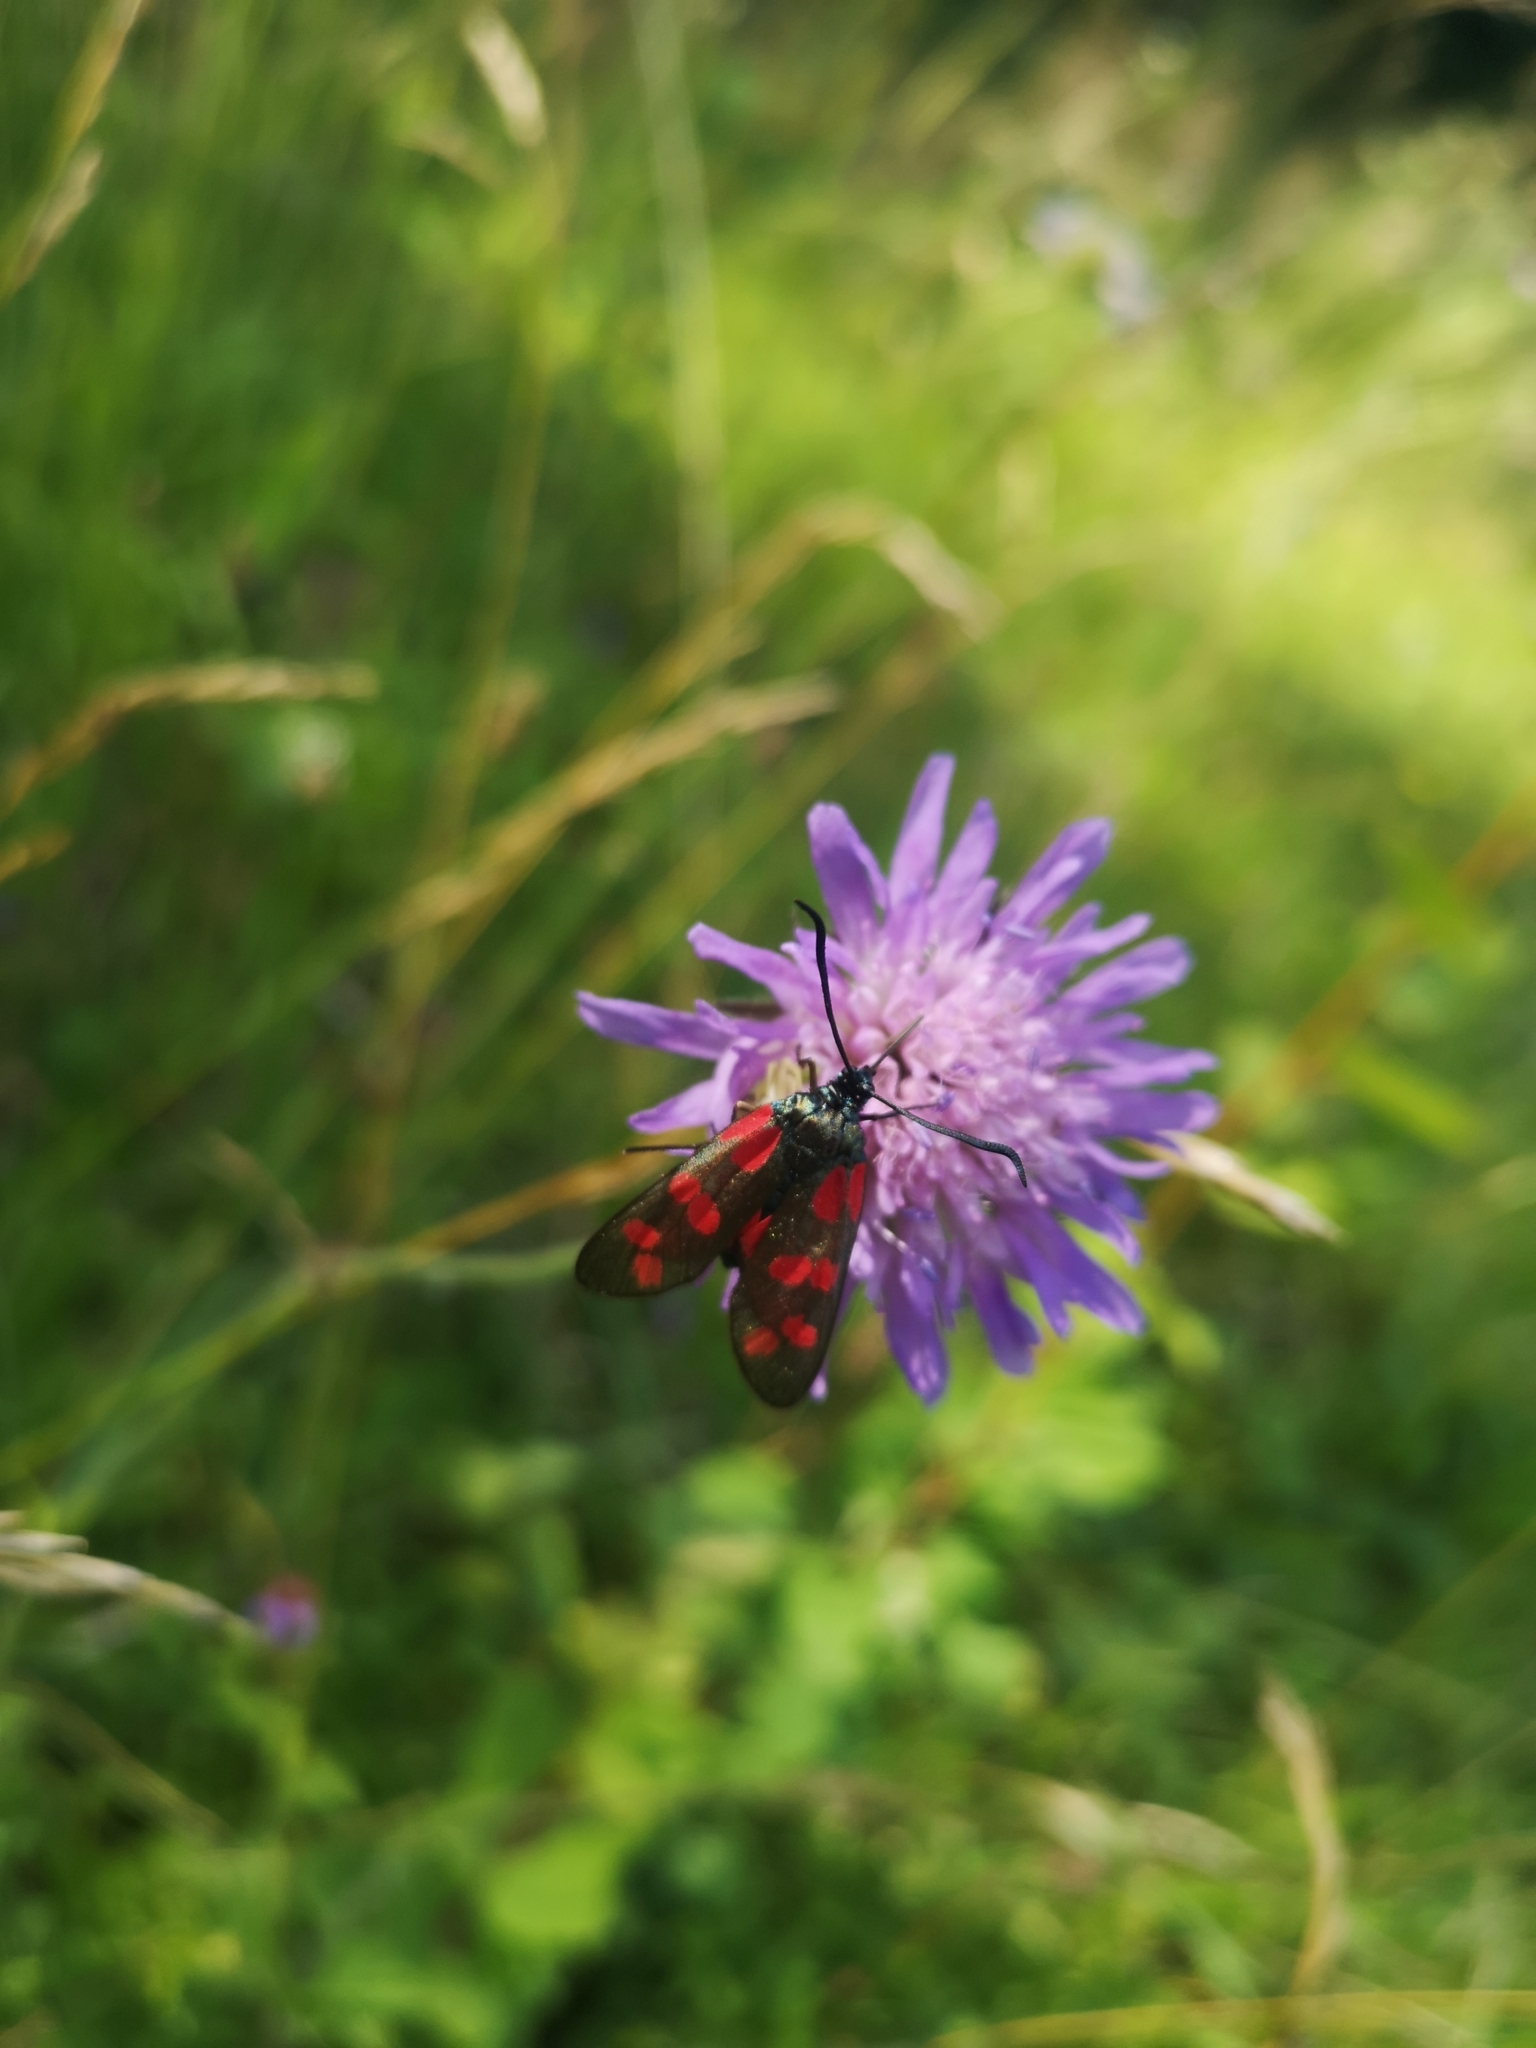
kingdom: Animalia
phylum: Arthropoda
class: Insecta
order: Lepidoptera
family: Zygaenidae
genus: Zygaena
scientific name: Zygaena filipendulae
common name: Six-spot burnet
